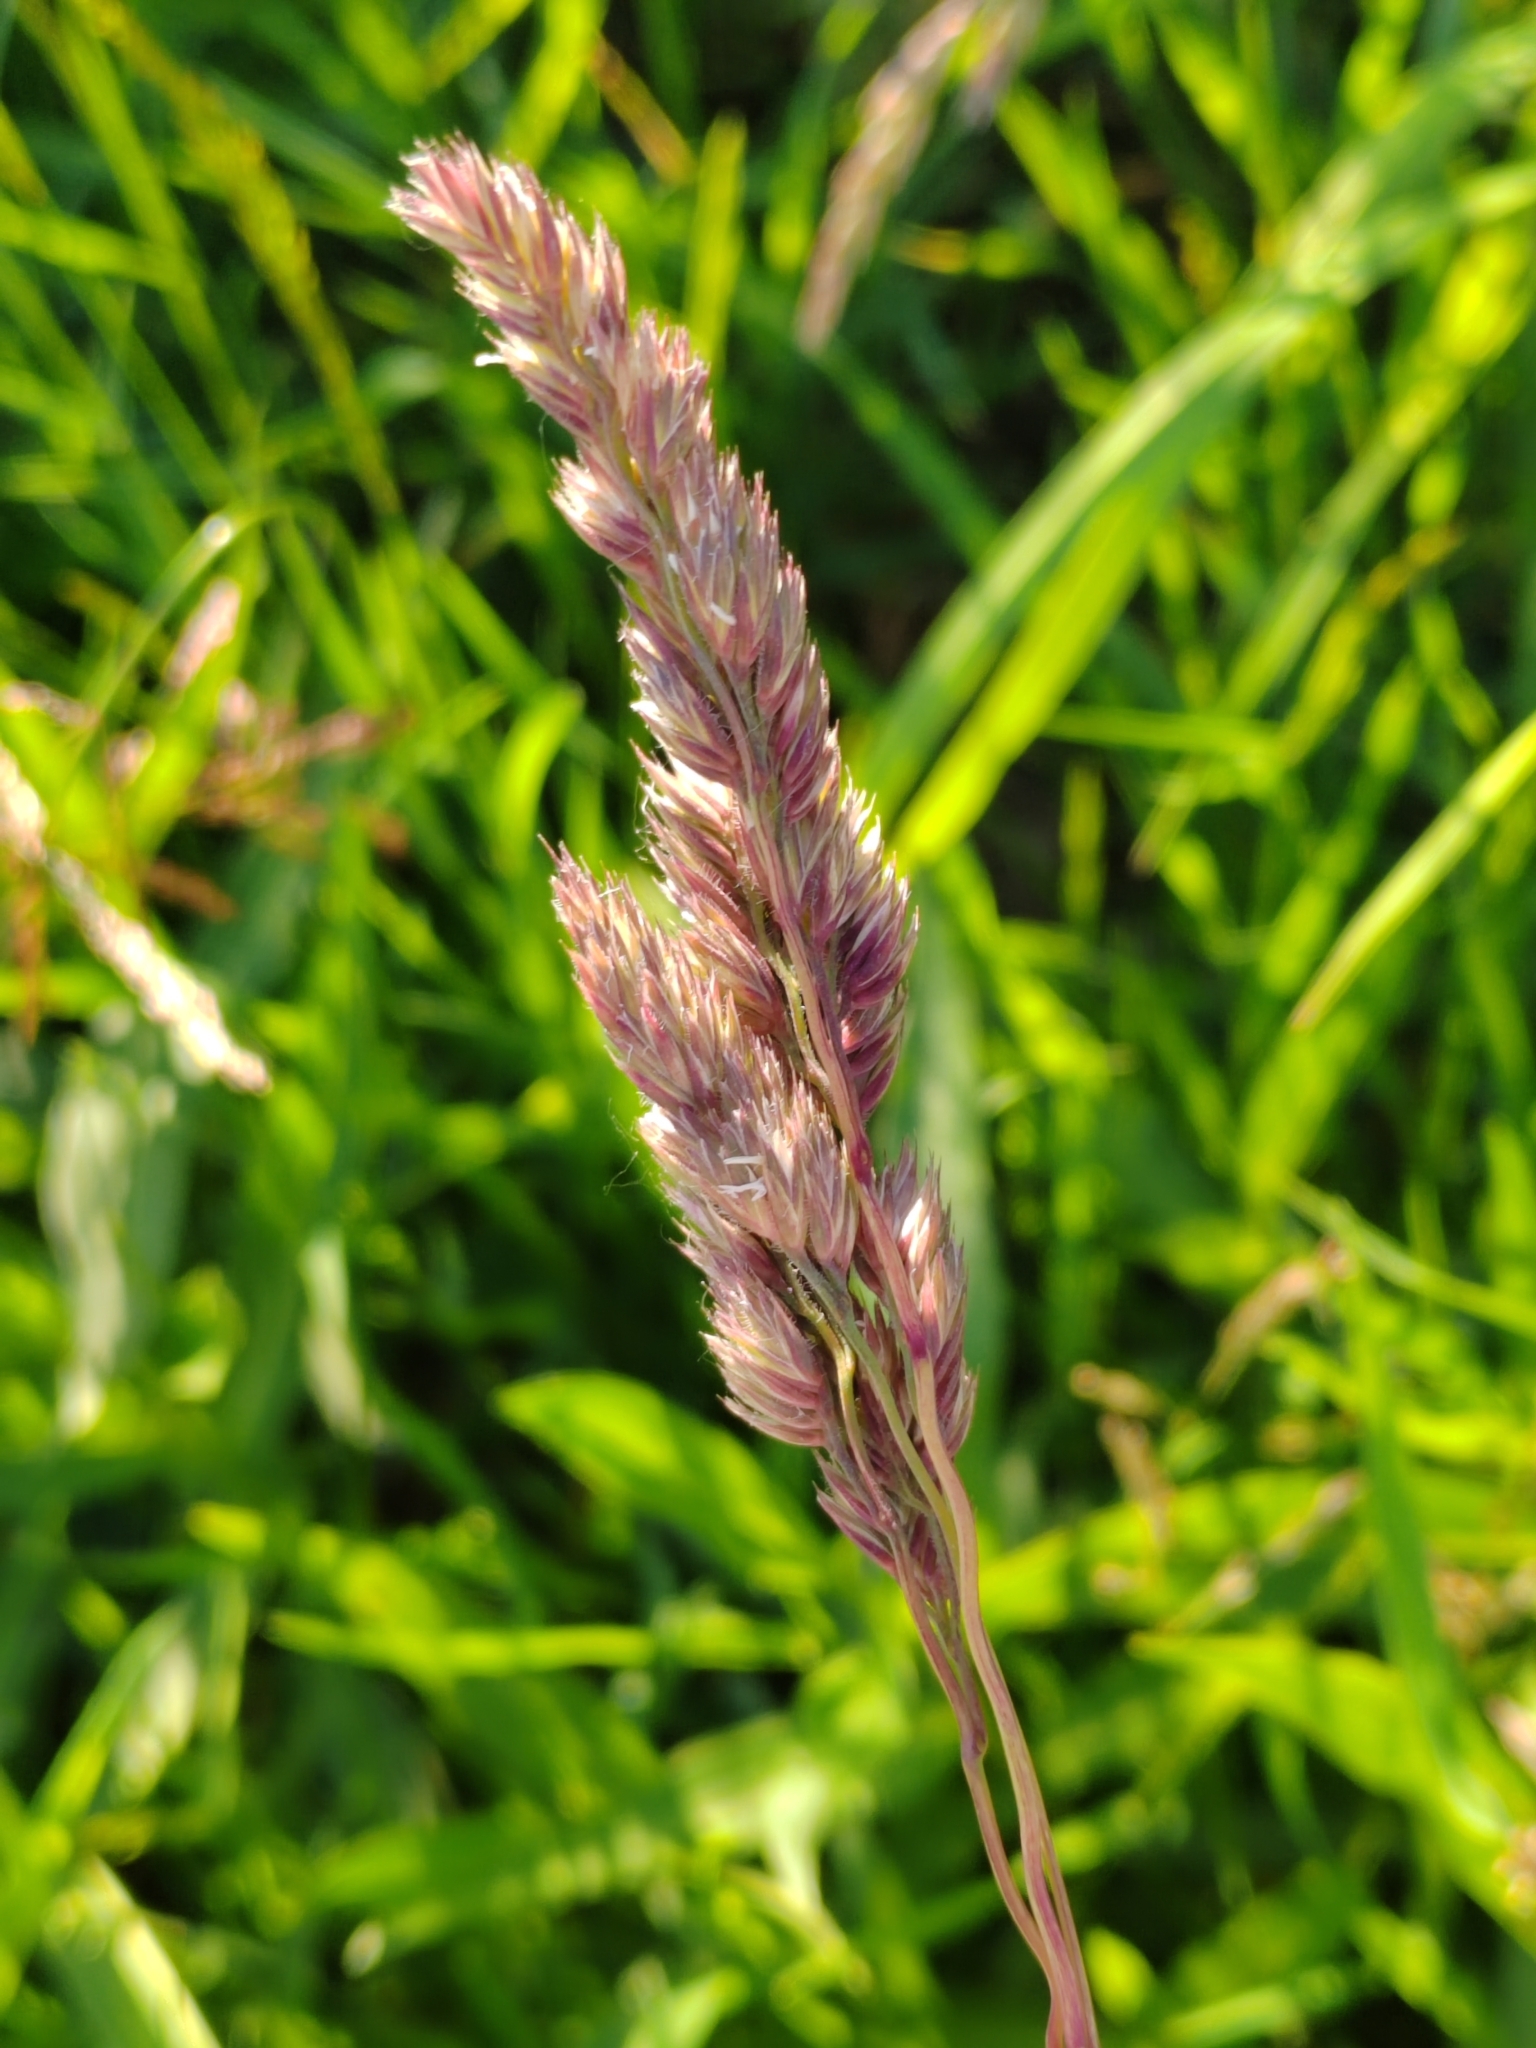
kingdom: Plantae
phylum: Tracheophyta
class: Liliopsida
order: Poales
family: Poaceae
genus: Dactylis
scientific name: Dactylis glomerata
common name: Orchardgrass
